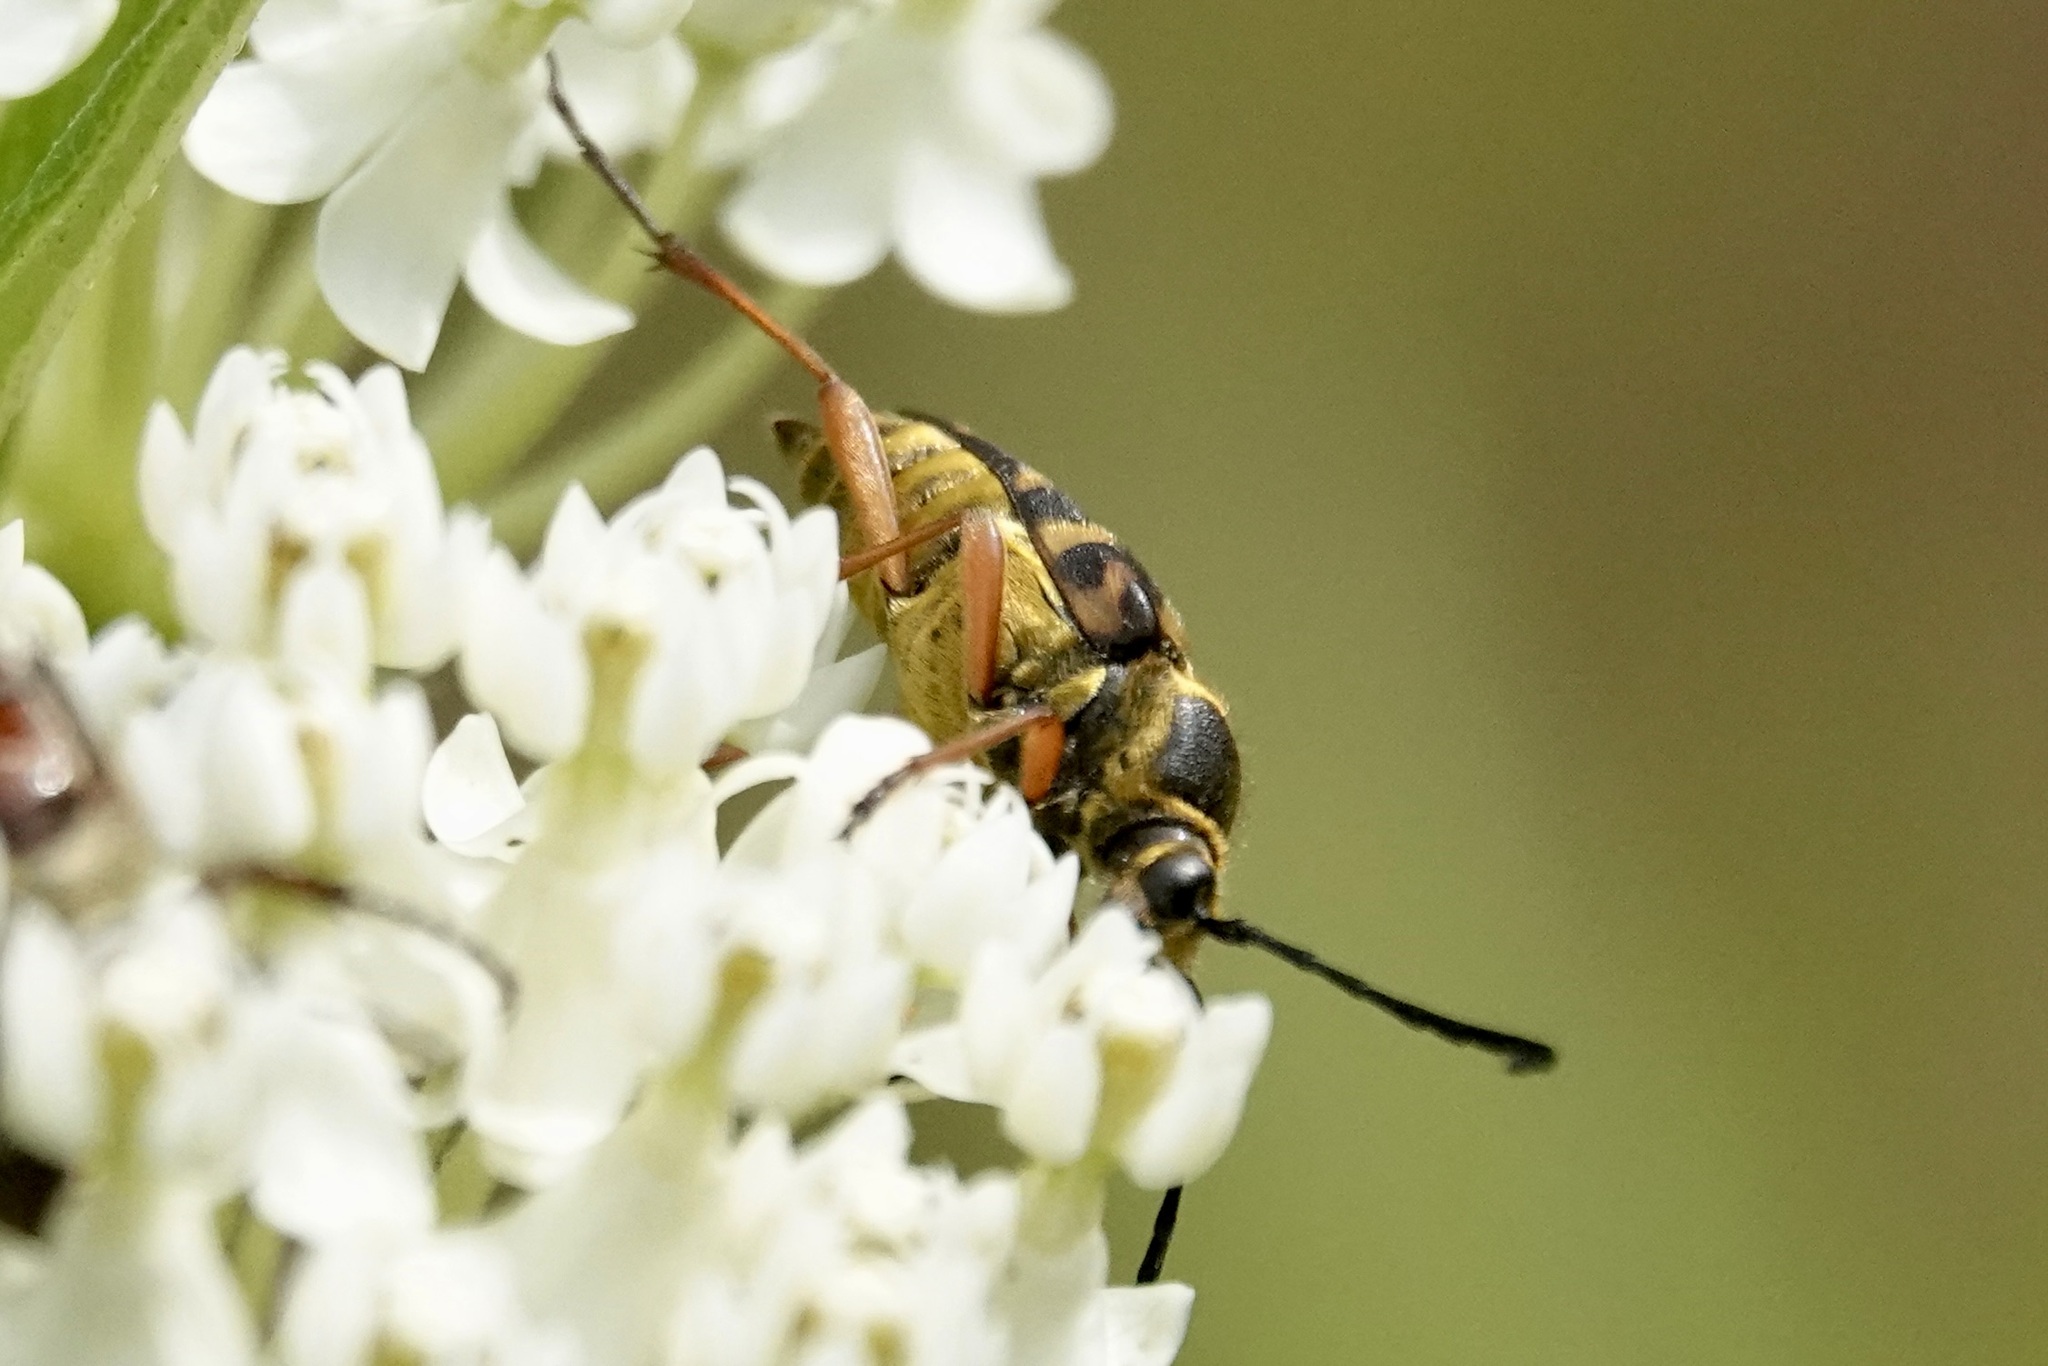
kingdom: Animalia
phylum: Arthropoda
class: Insecta
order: Coleoptera
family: Cerambycidae
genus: Typocerus
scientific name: Typocerus zebra
